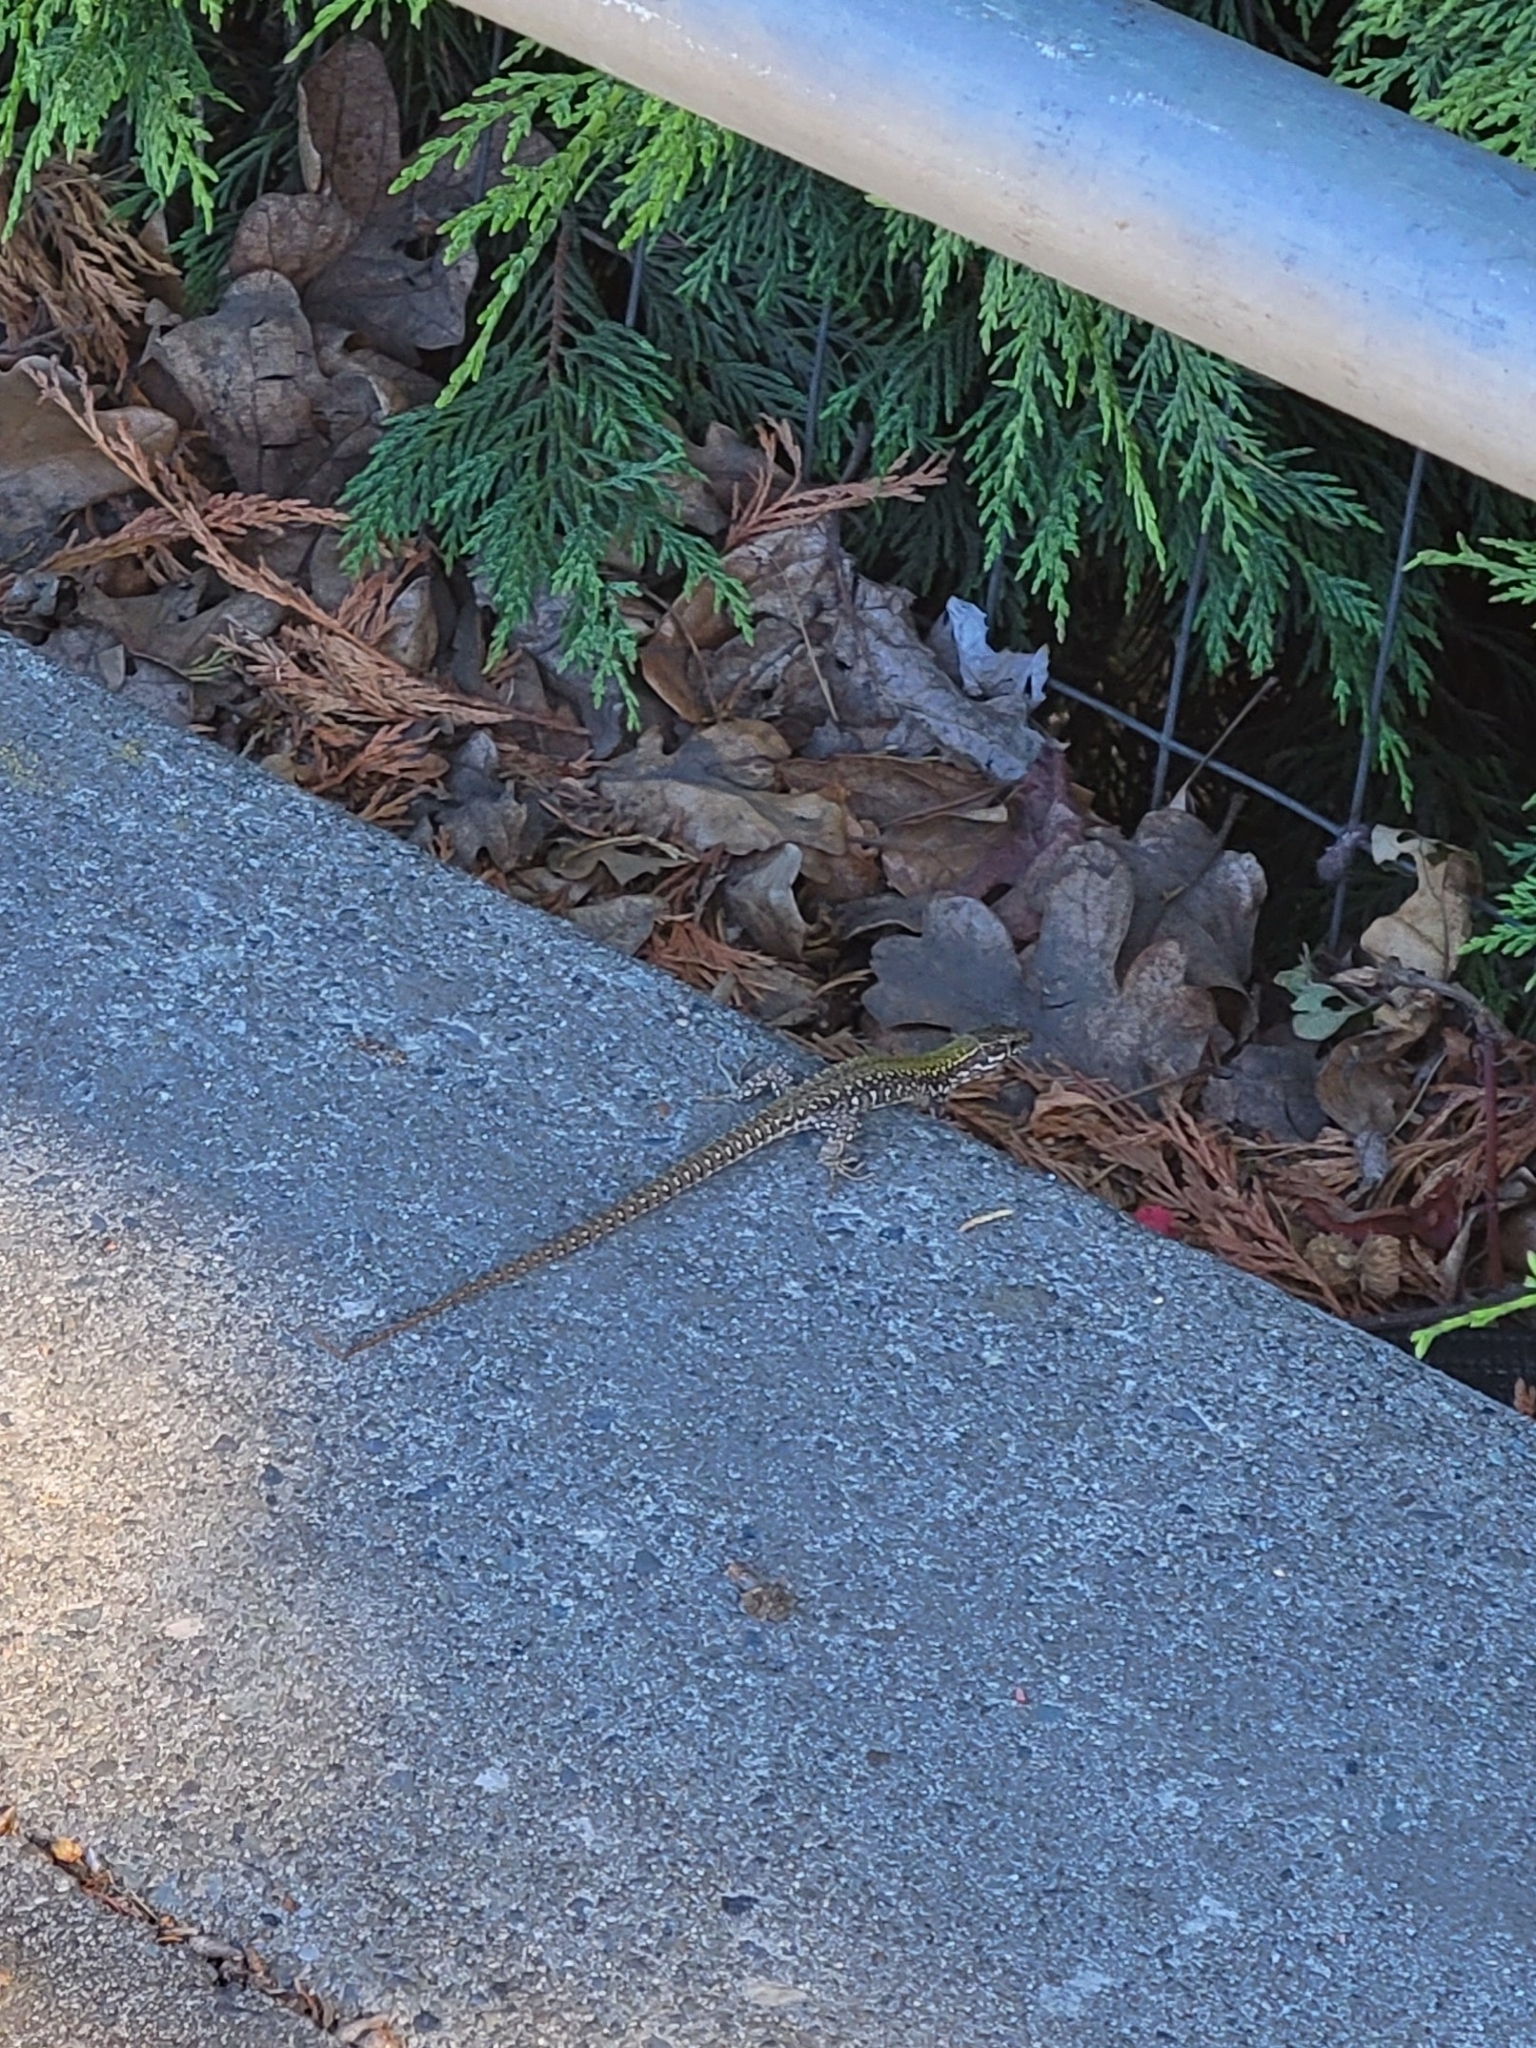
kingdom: Animalia
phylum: Chordata
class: Squamata
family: Lacertidae
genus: Podarcis
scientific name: Podarcis muralis
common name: Common wall lizard
